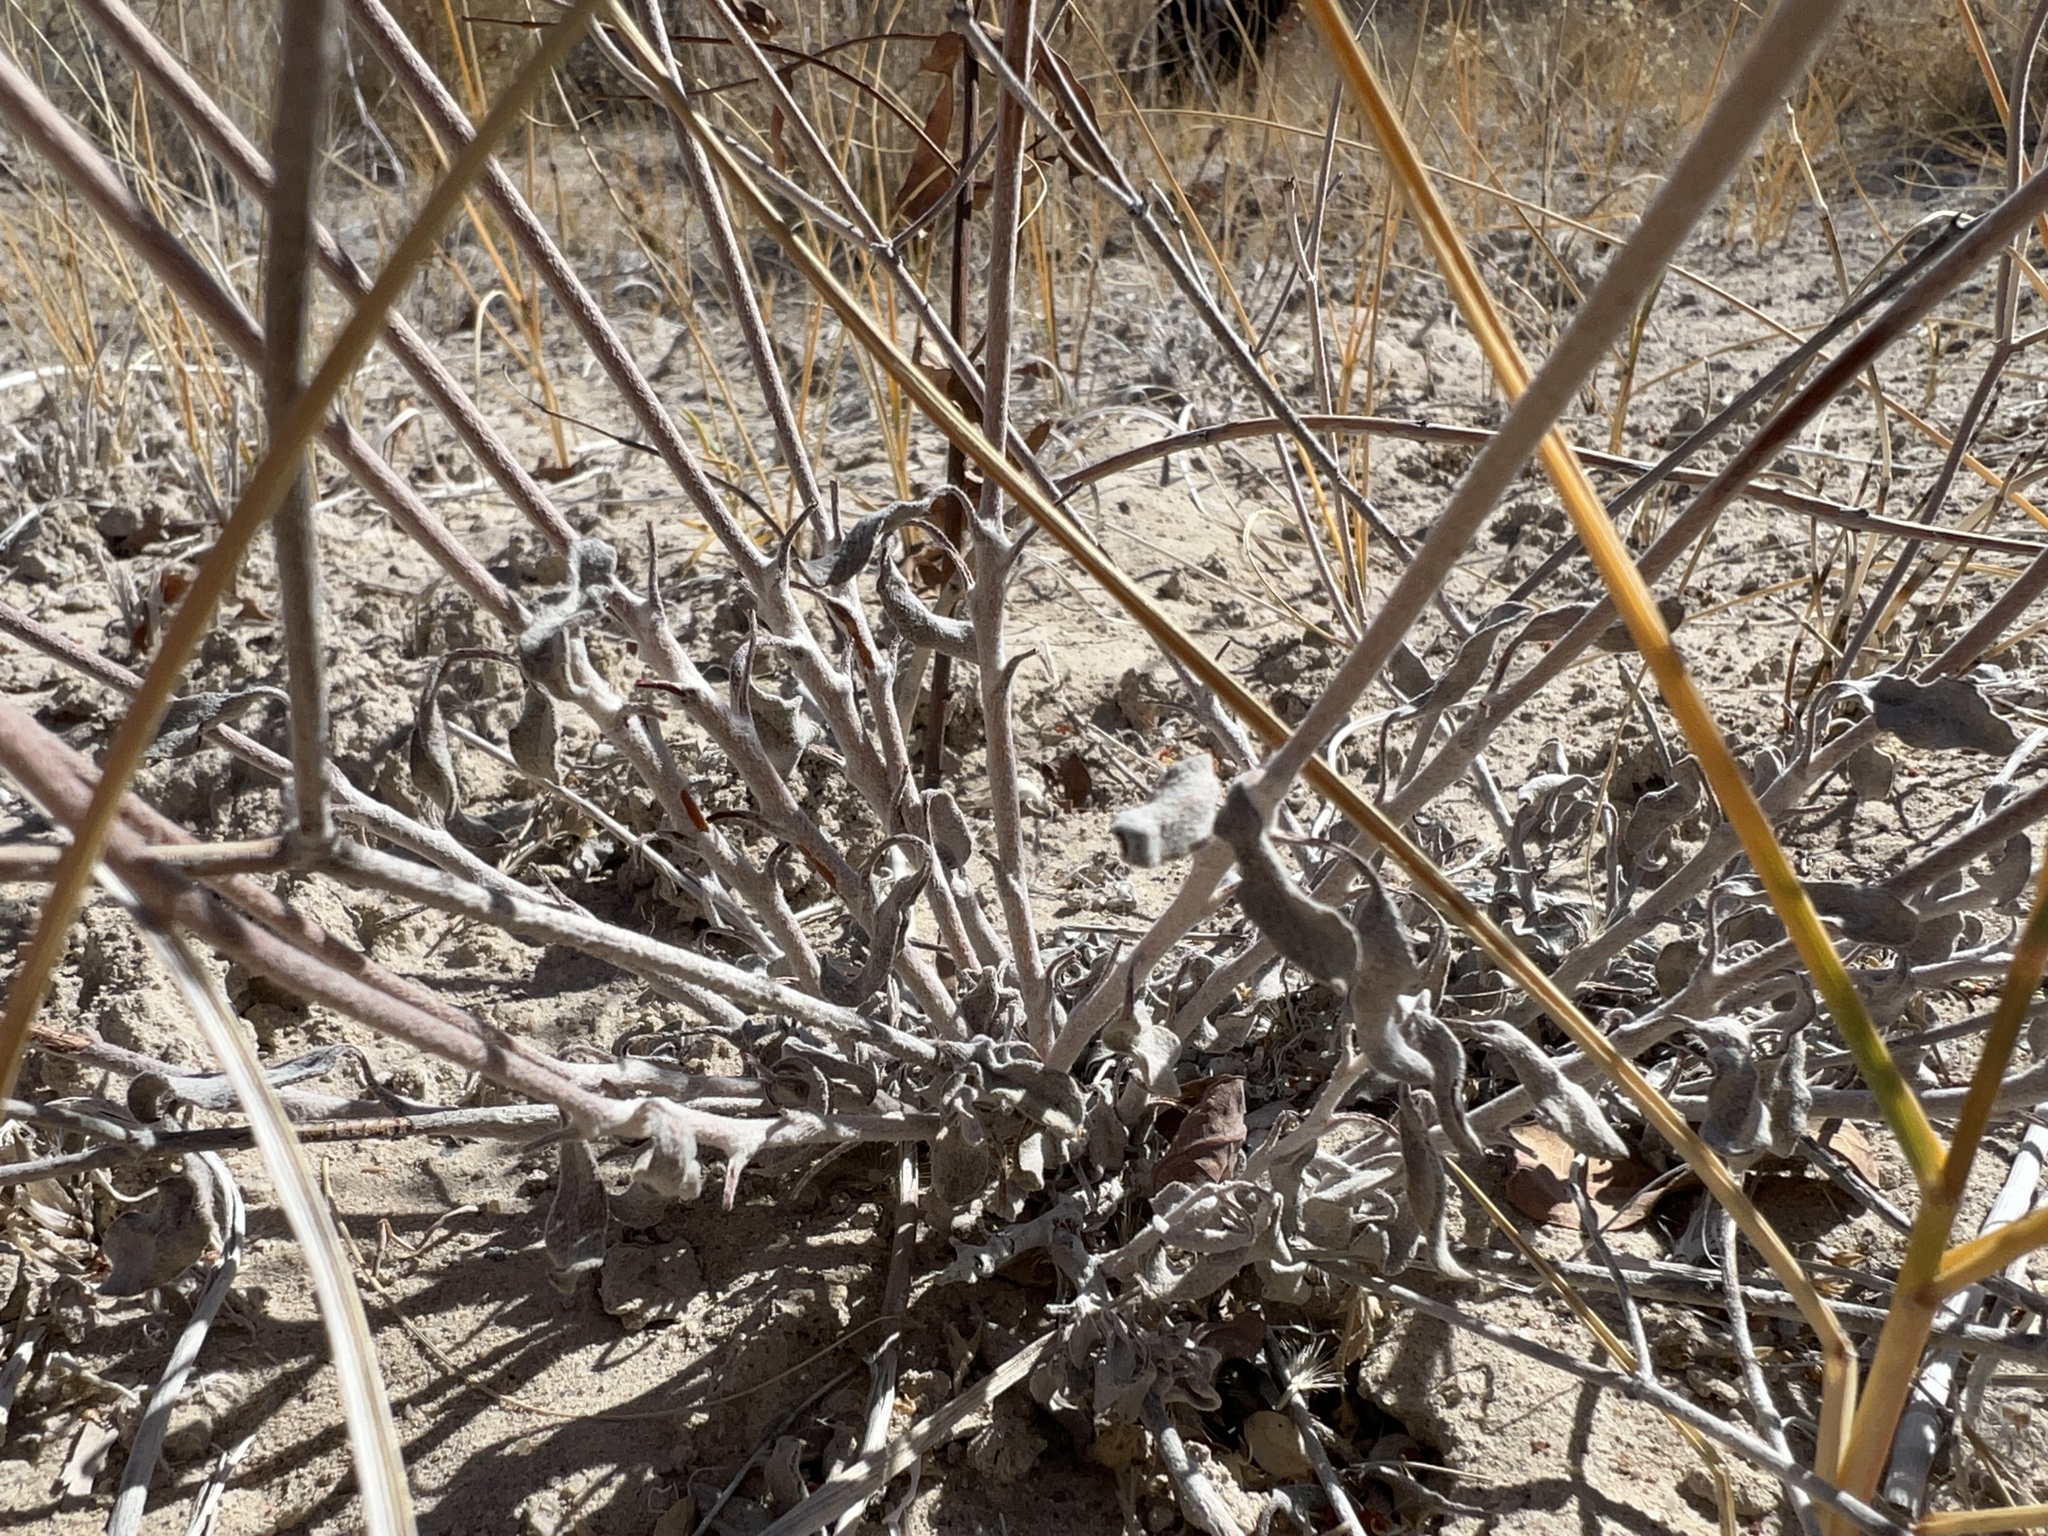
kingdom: Plantae
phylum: Tracheophyta
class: Magnoliopsida
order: Caryophyllales
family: Polygonaceae
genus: Eriogonum
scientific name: Eriogonum nummulare
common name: Kearney wild buckwheat
